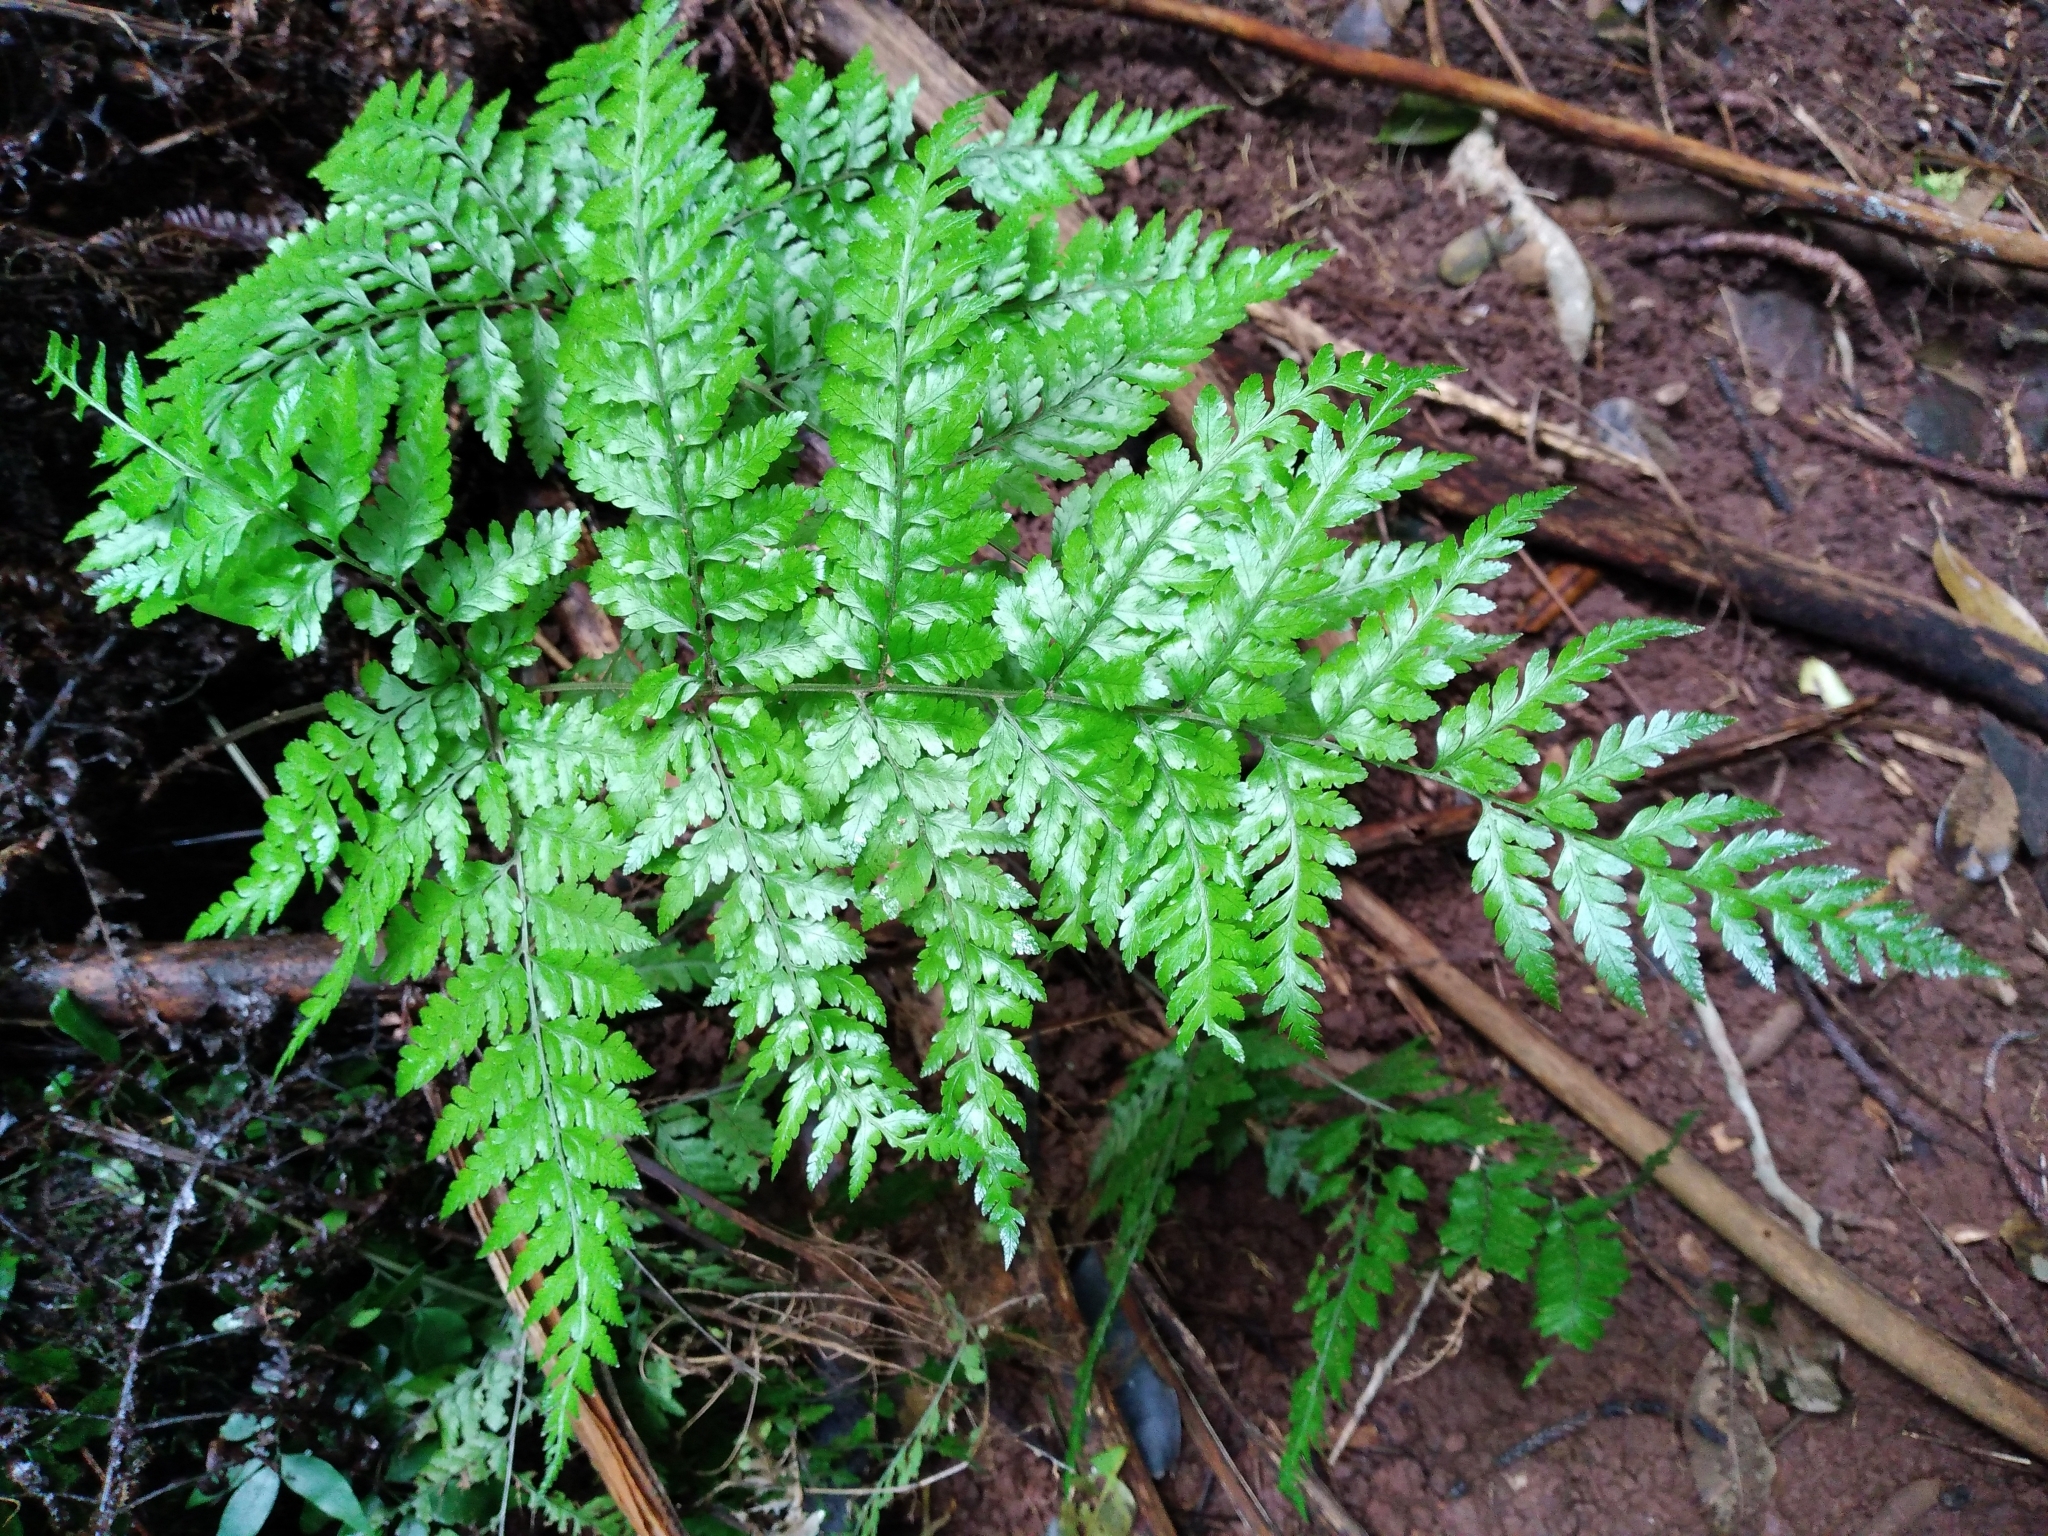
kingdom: Plantae
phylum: Tracheophyta
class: Polypodiopsida
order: Polypodiales
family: Dryopteridaceae
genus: Parapolystichum
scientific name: Parapolystichum calanthum
